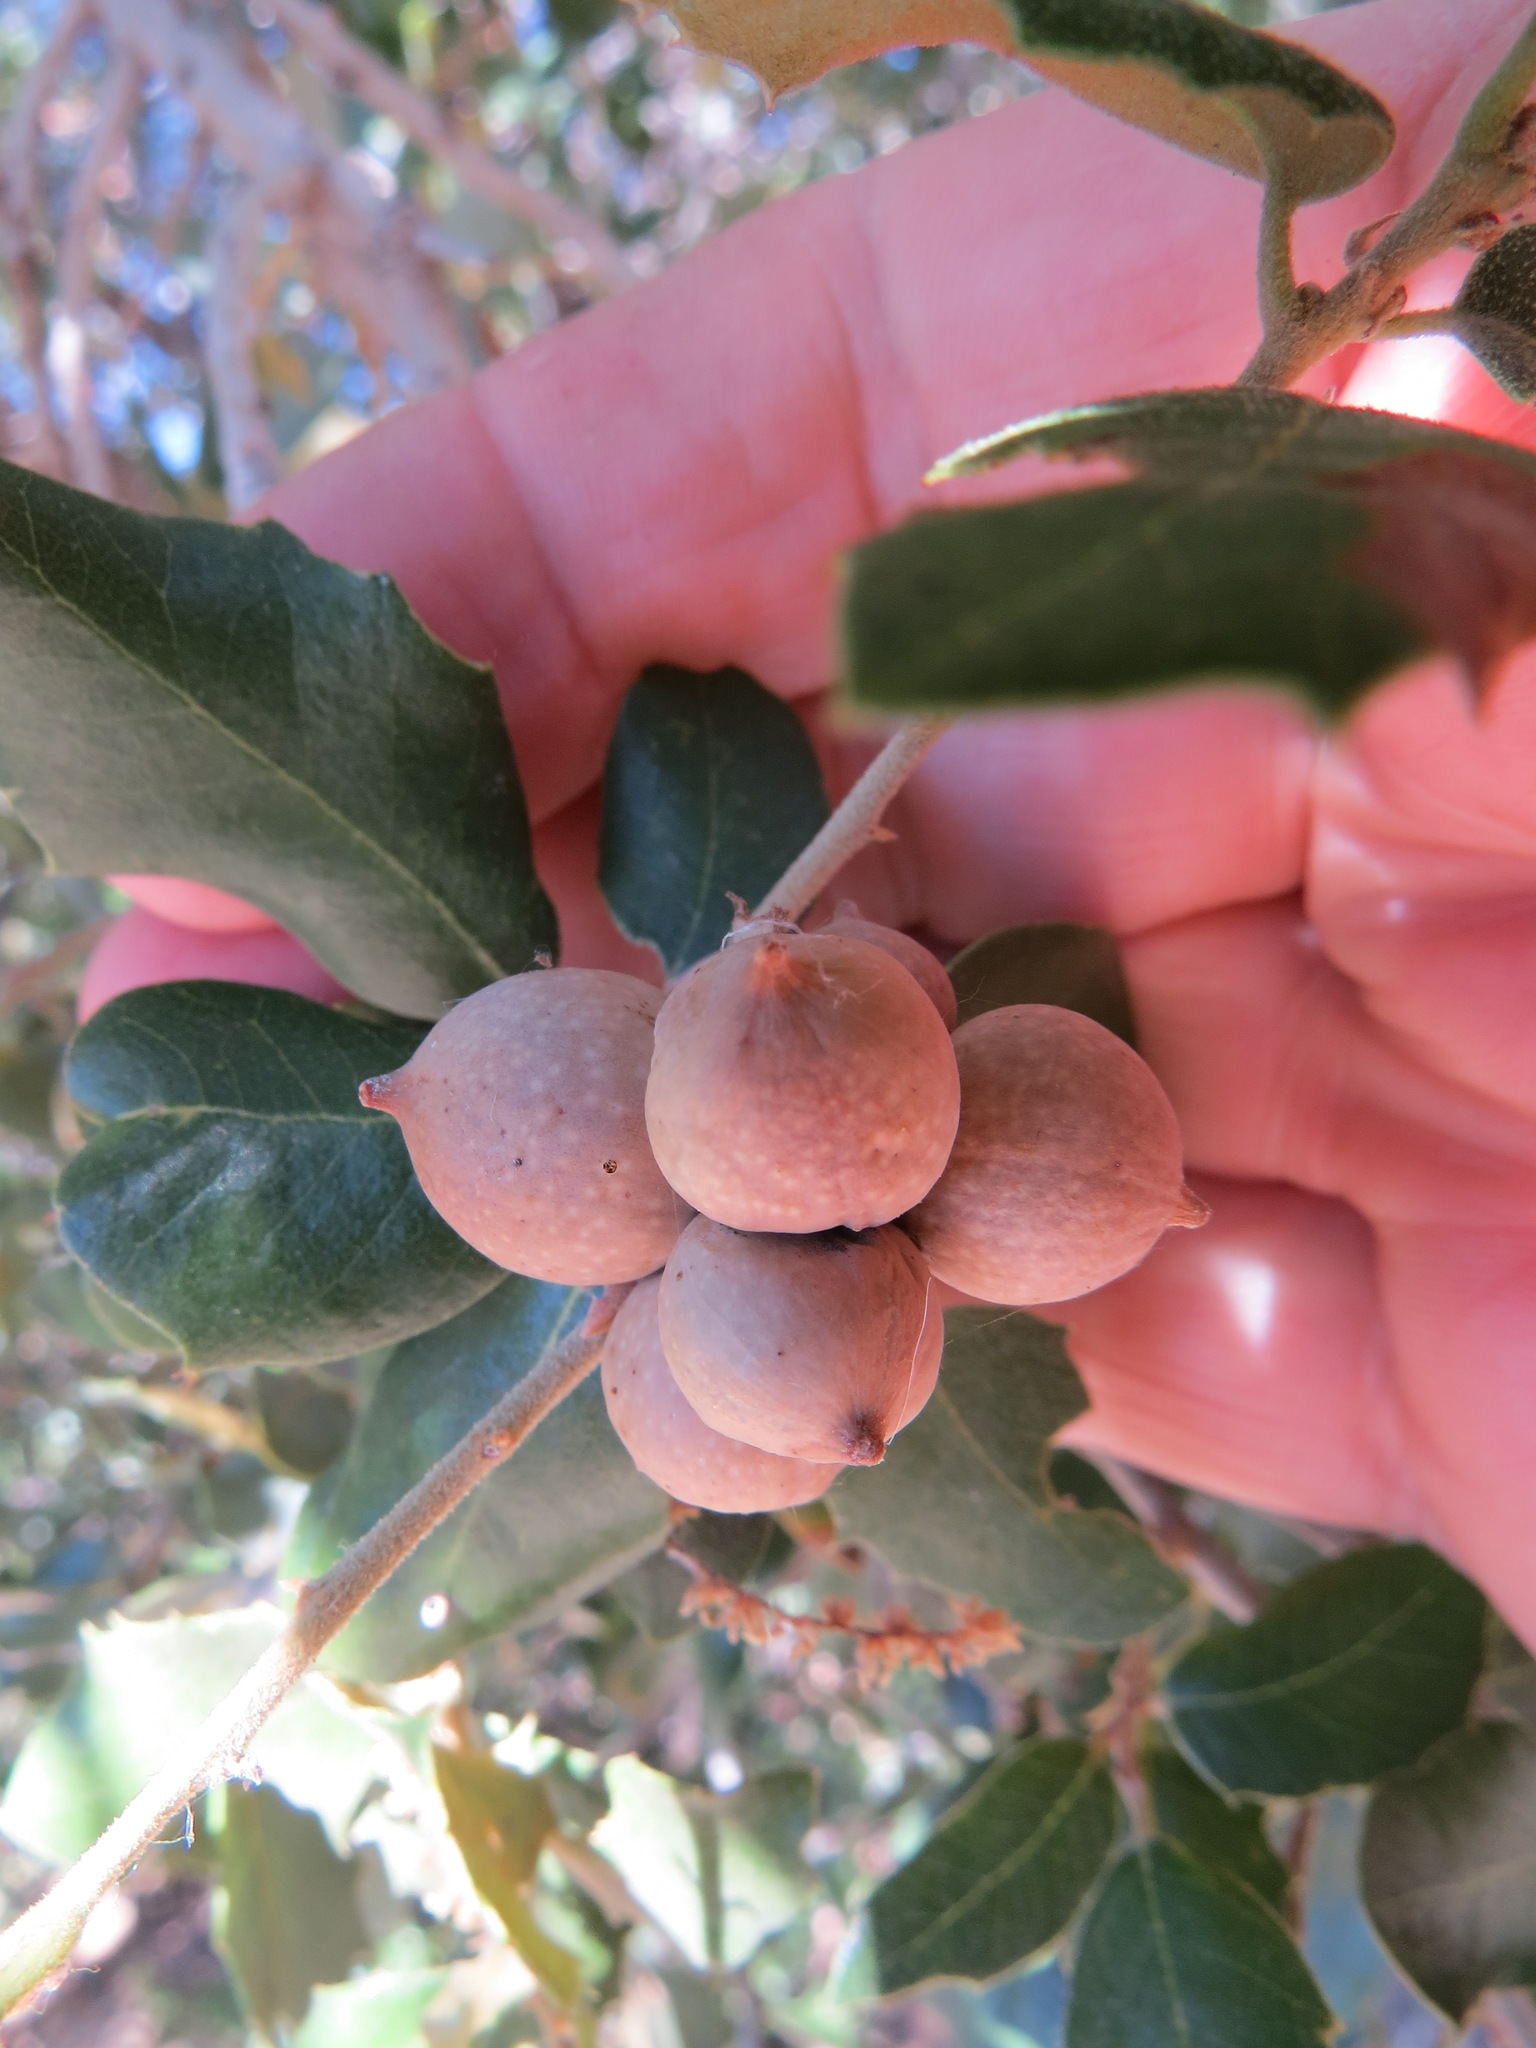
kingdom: Animalia
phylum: Arthropoda
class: Insecta
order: Hymenoptera
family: Cynipidae
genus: Heteroecus
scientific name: Heteroecus
